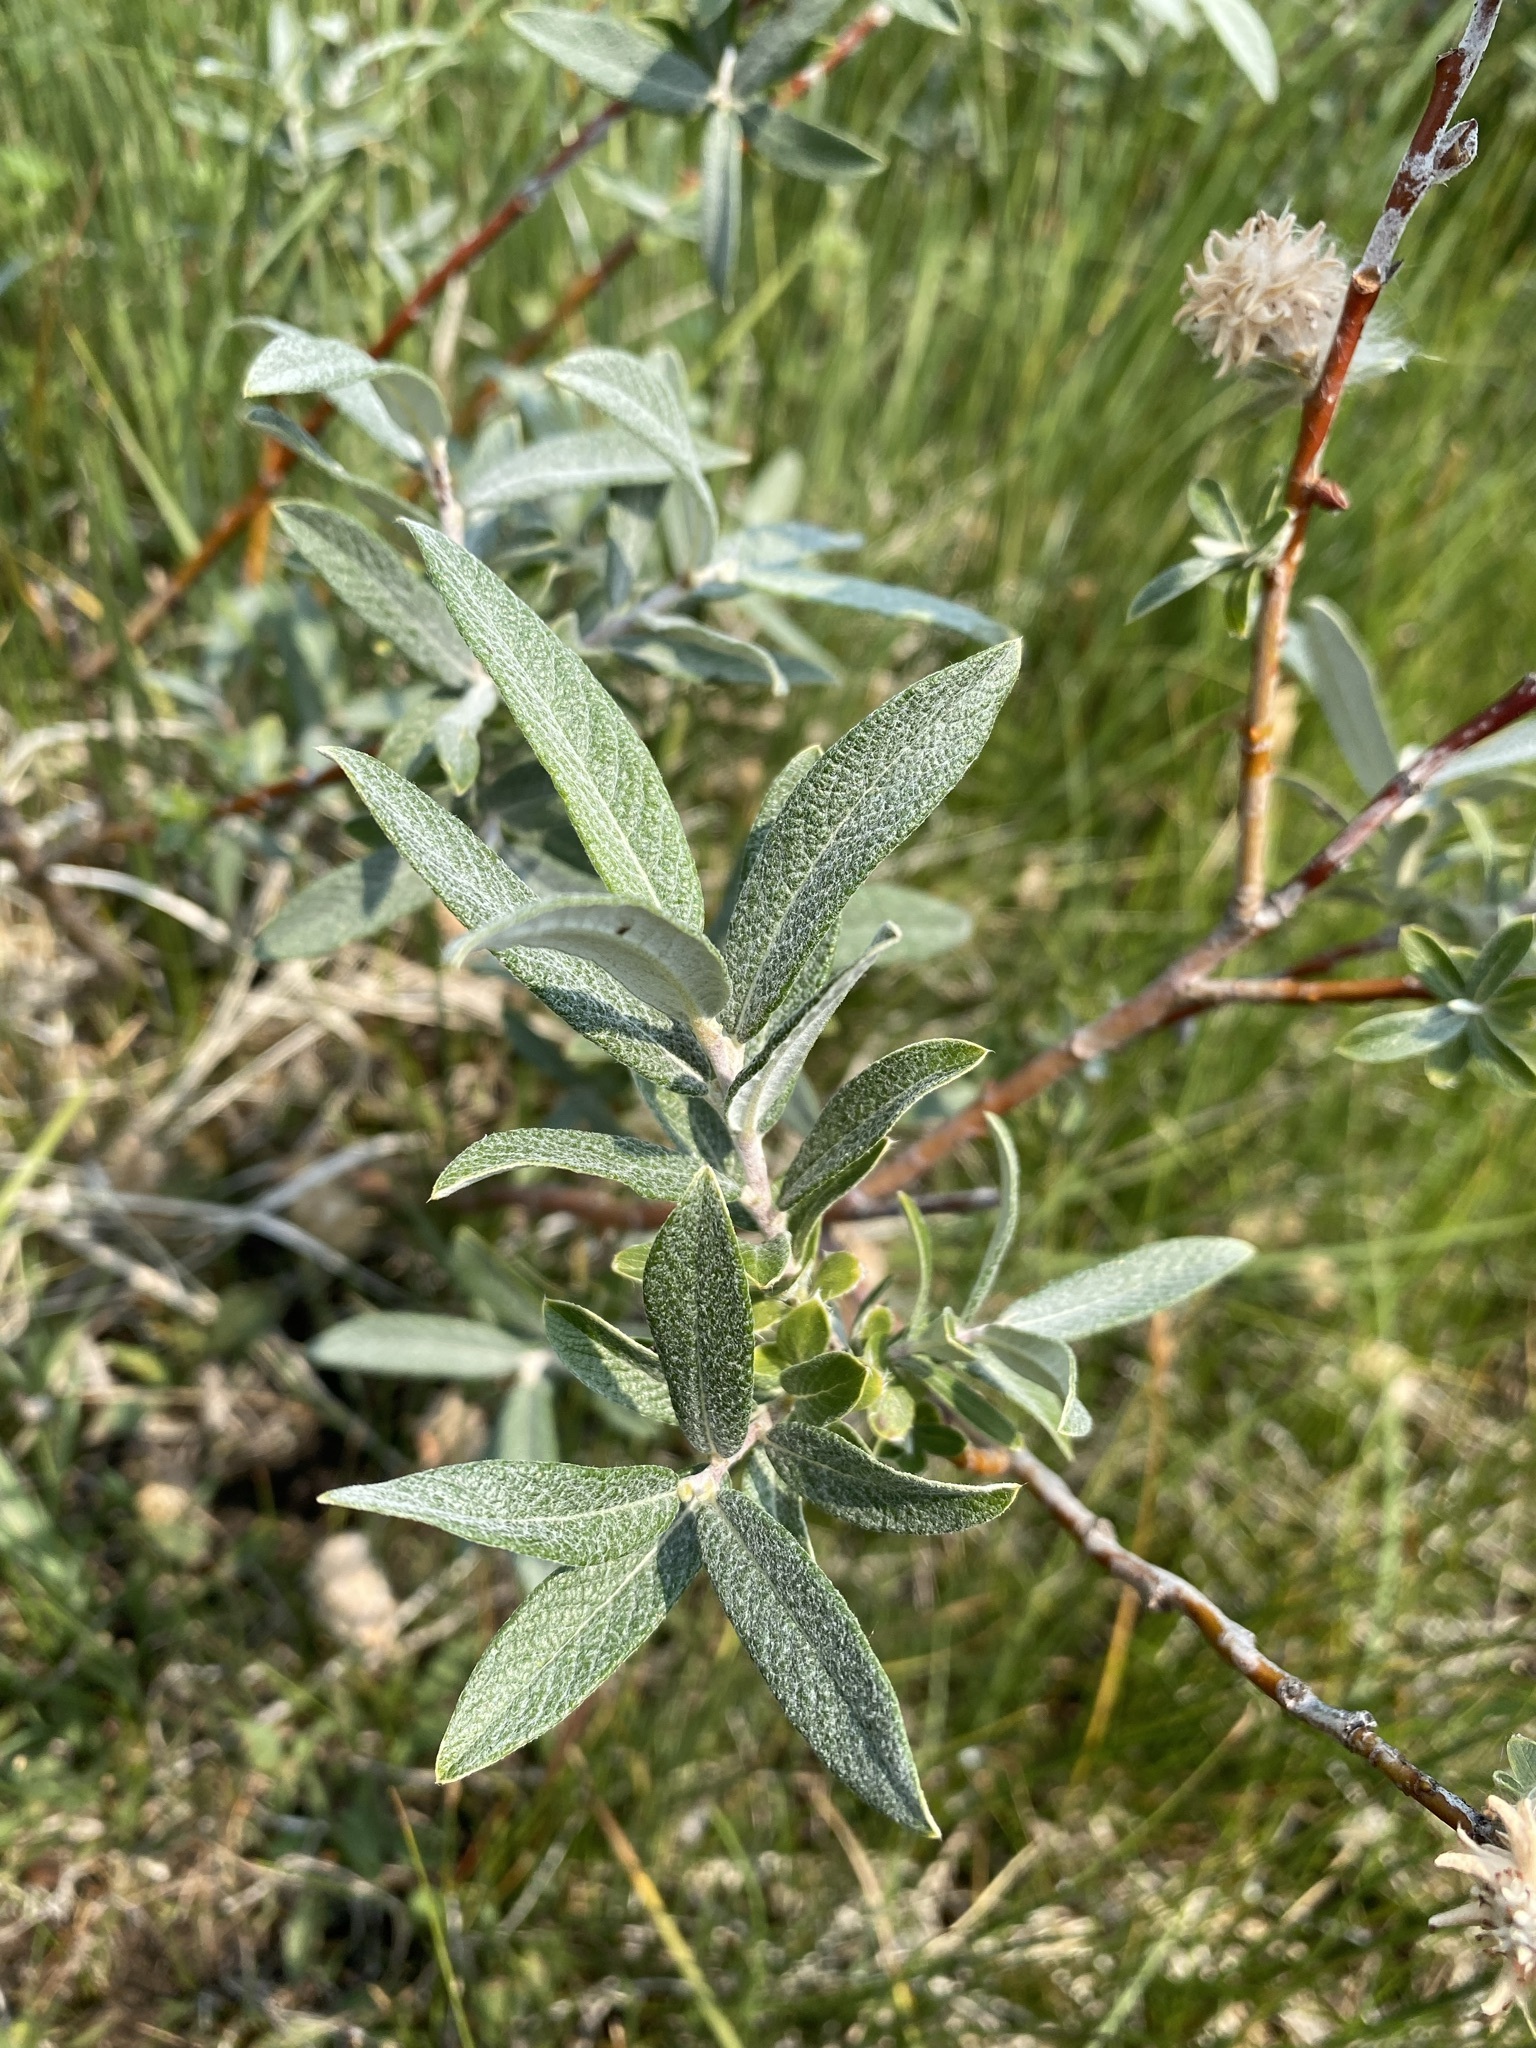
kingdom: Plantae
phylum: Tracheophyta
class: Magnoliopsida
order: Malpighiales
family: Salicaceae
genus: Salix
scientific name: Salix candida
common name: Hoary willow
